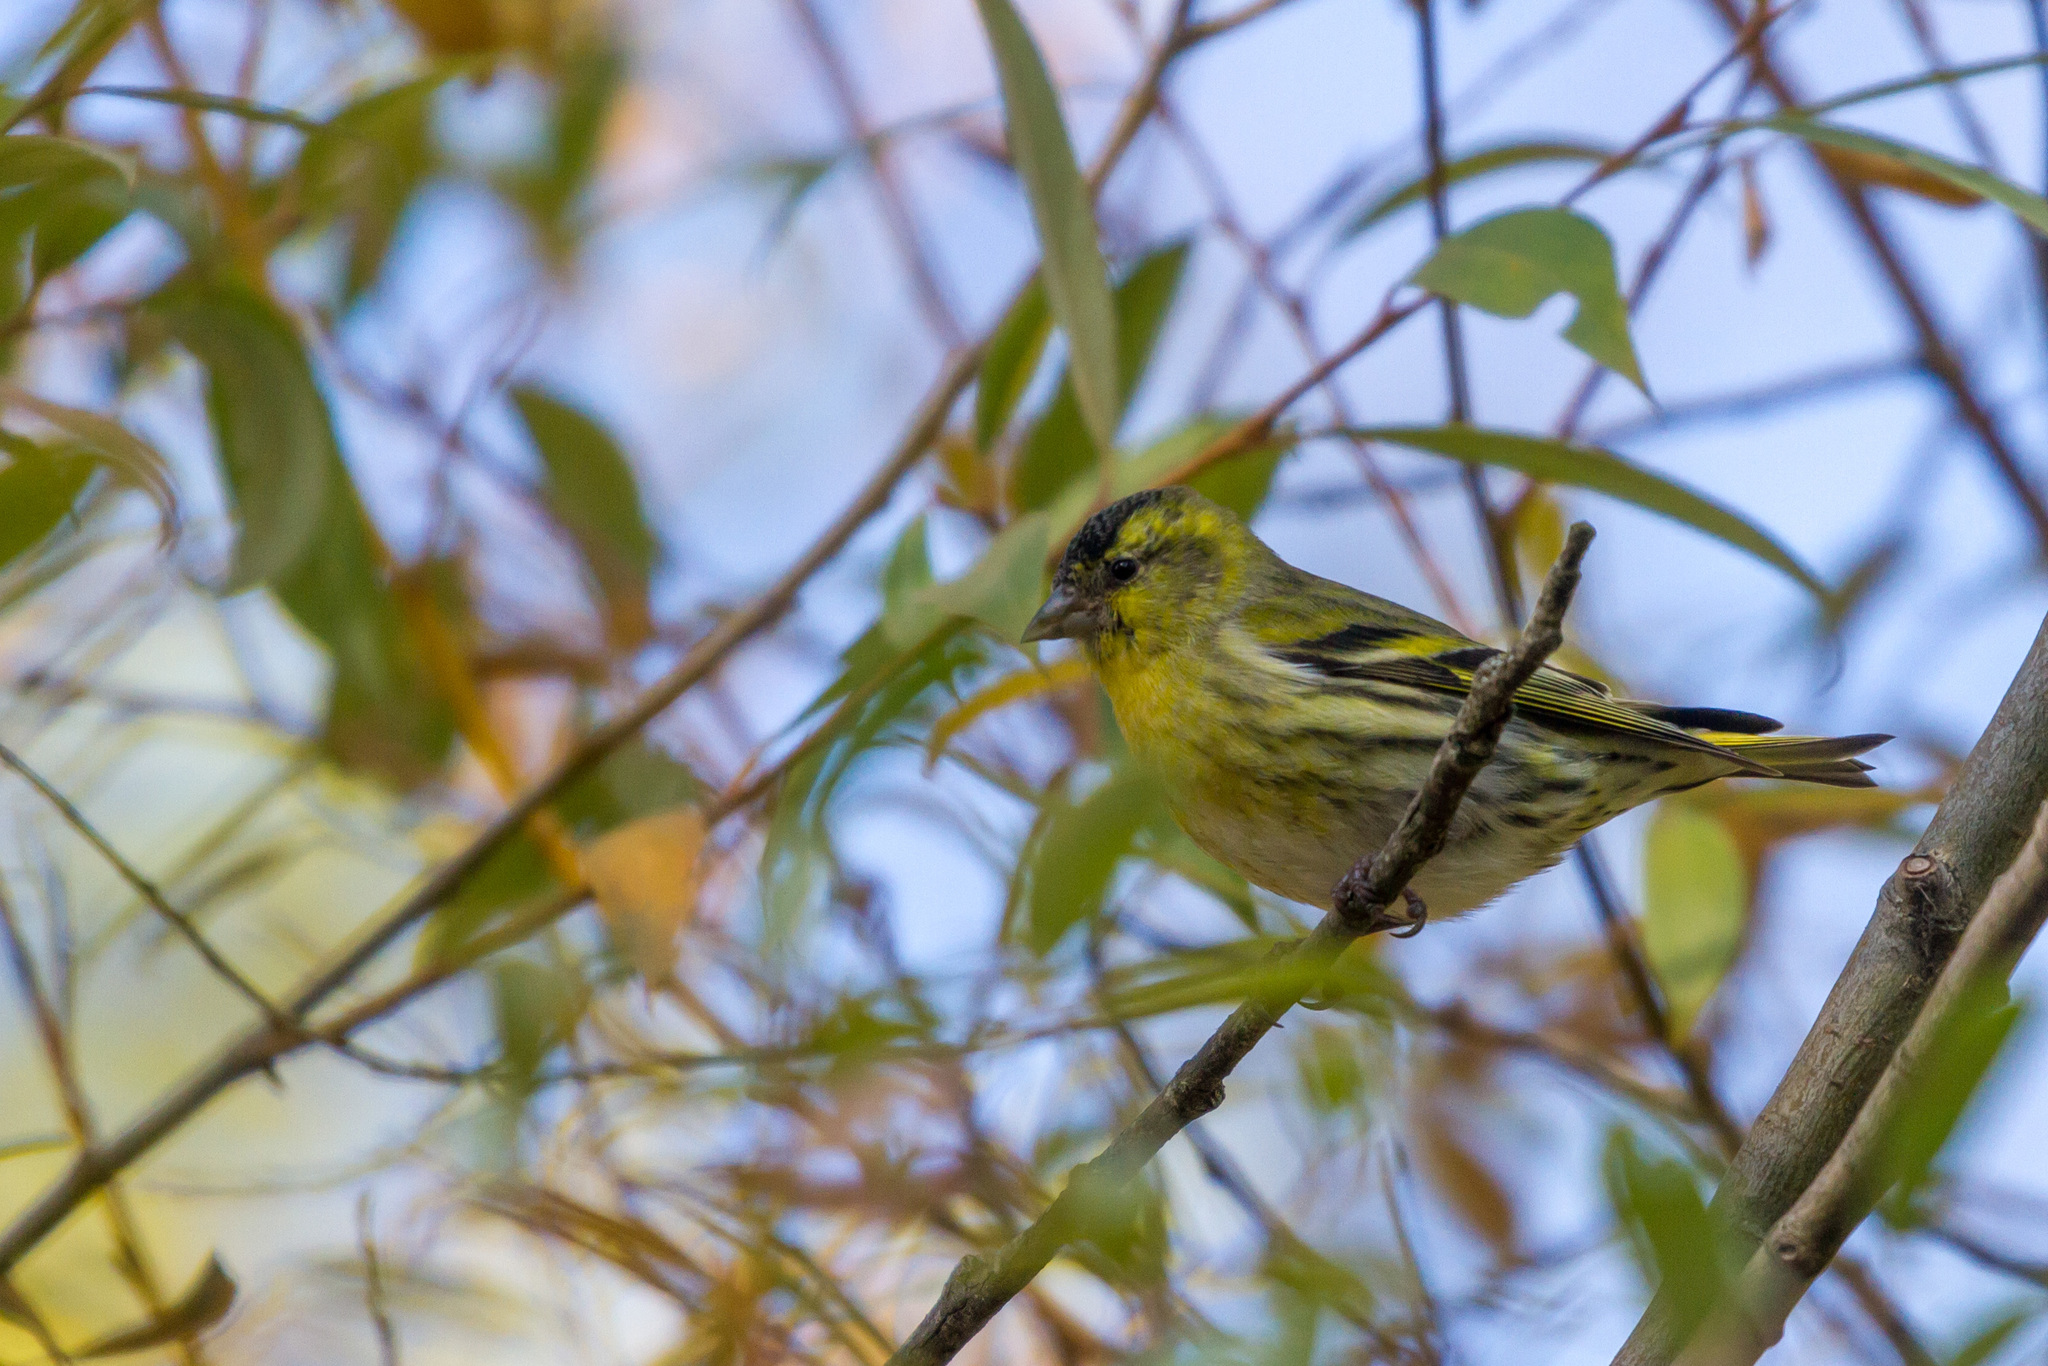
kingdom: Animalia
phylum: Chordata
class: Aves
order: Passeriformes
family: Fringillidae
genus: Spinus
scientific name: Spinus spinus
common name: Eurasian siskin
